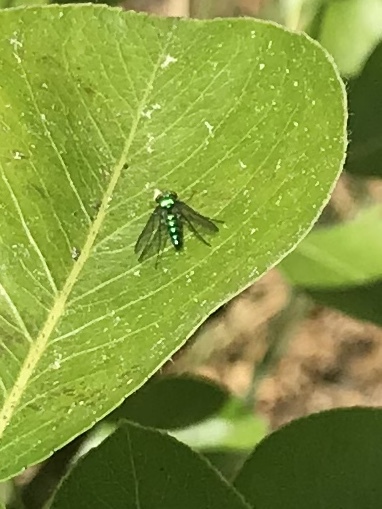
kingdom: Animalia
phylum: Arthropoda
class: Insecta
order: Diptera
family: Dolichopodidae
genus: Condylostylus
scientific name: Condylostylus longicornis
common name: Long-legged fly
